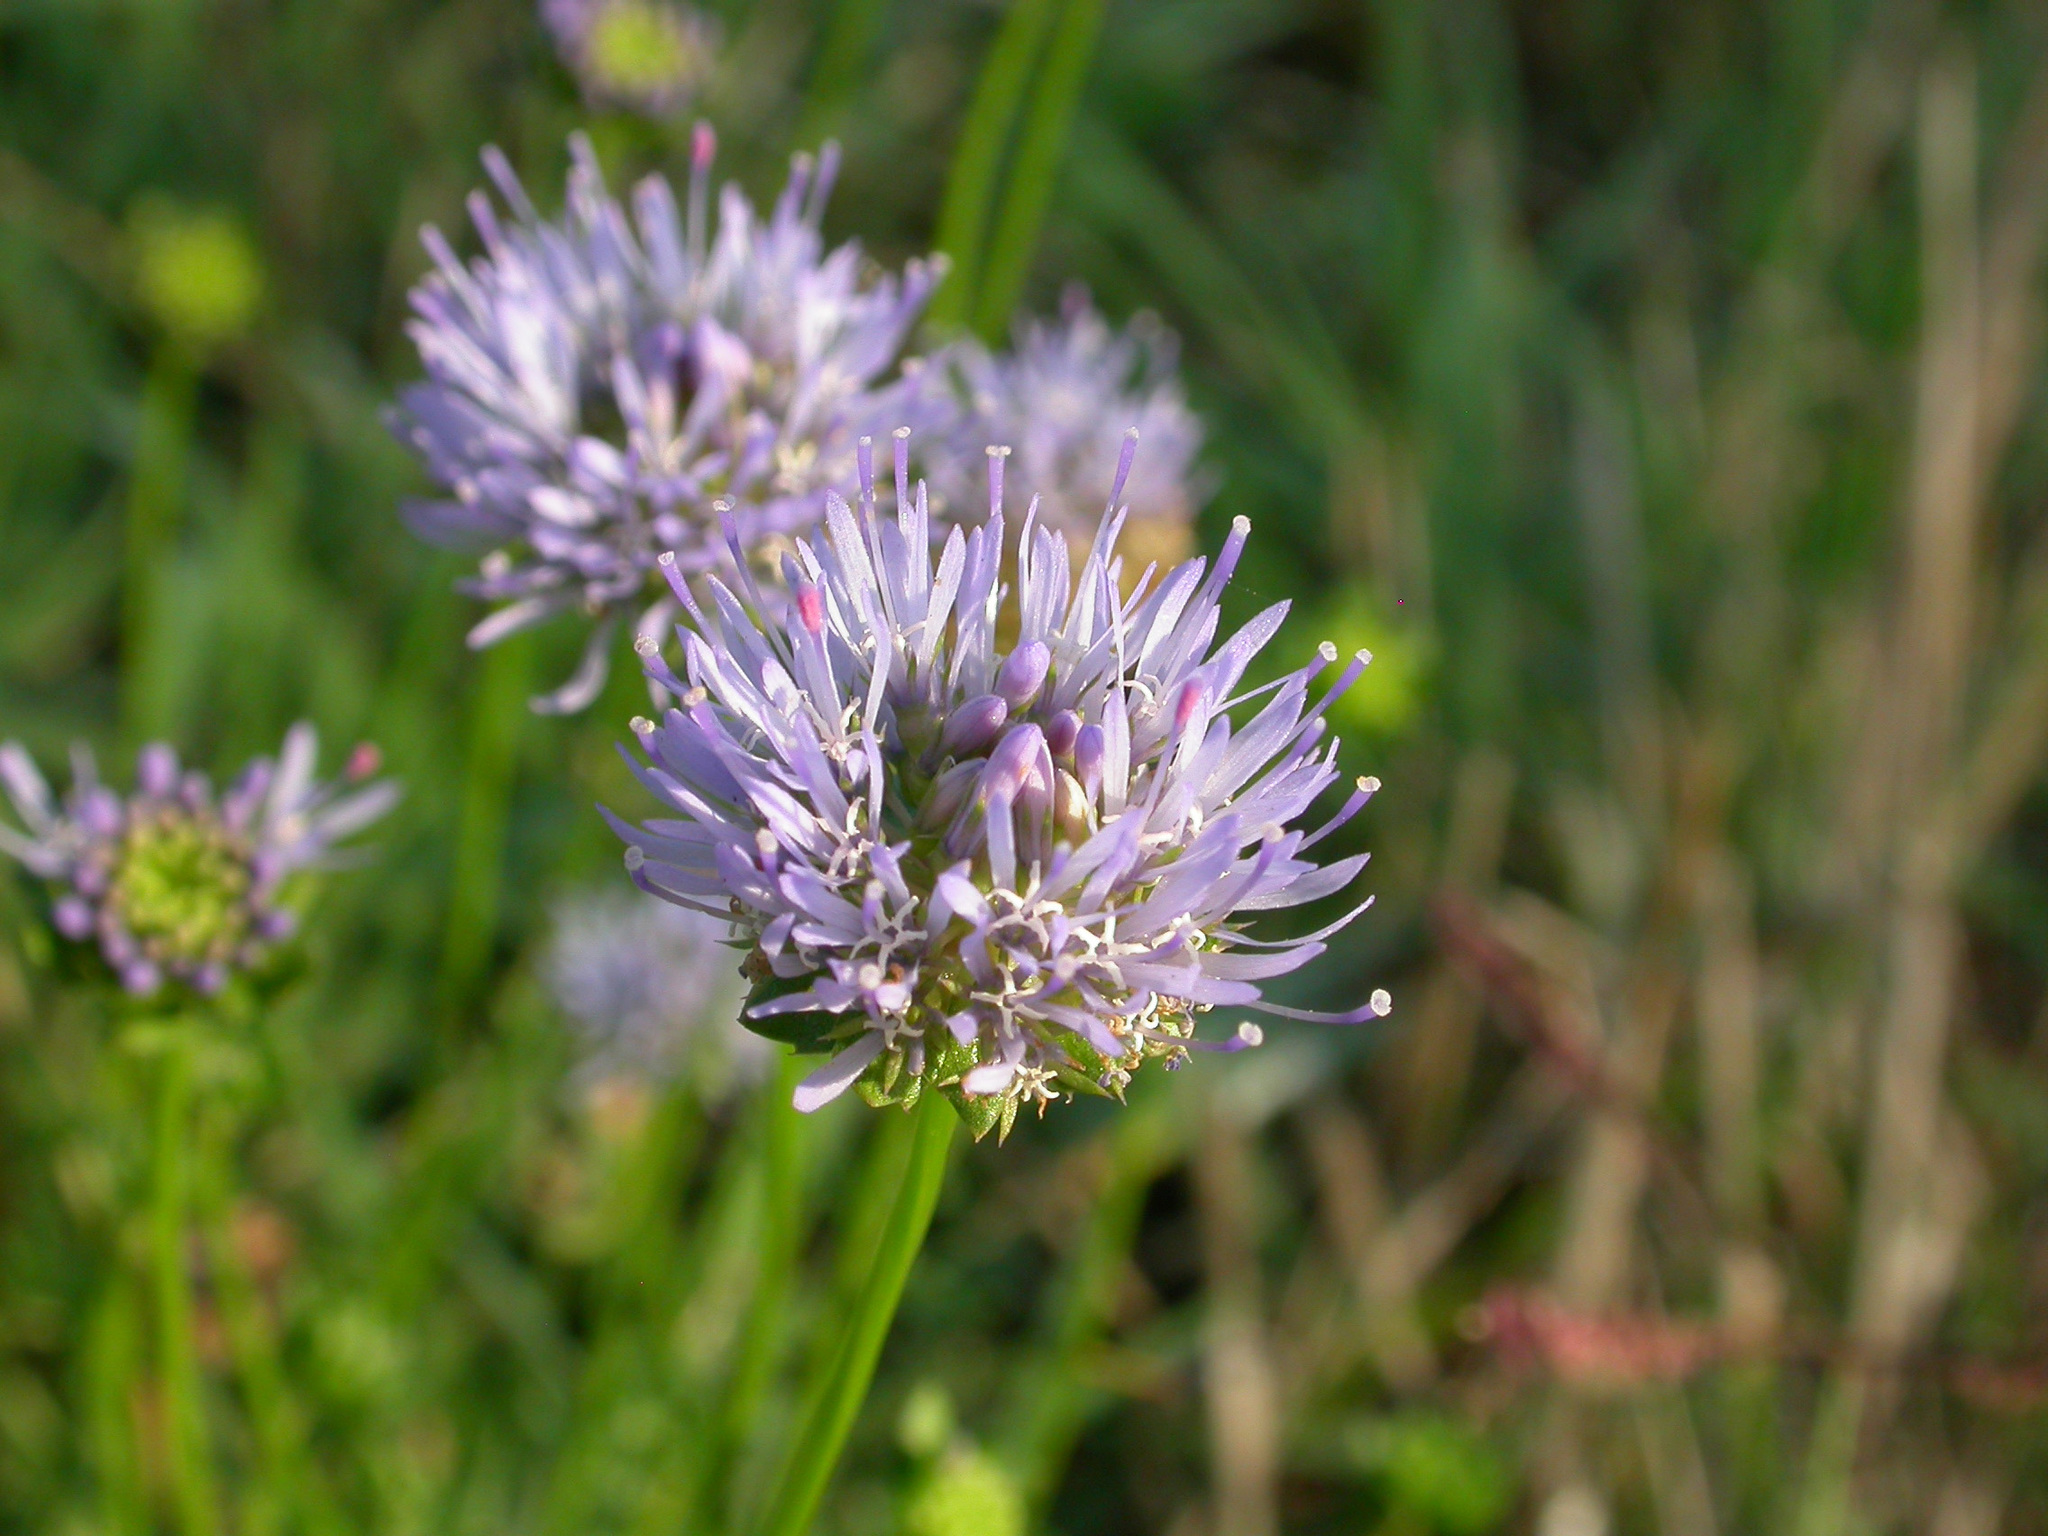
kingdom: Plantae
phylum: Tracheophyta
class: Magnoliopsida
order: Asterales
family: Campanulaceae
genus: Jasione
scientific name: Jasione montana
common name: Sheep's-bit
